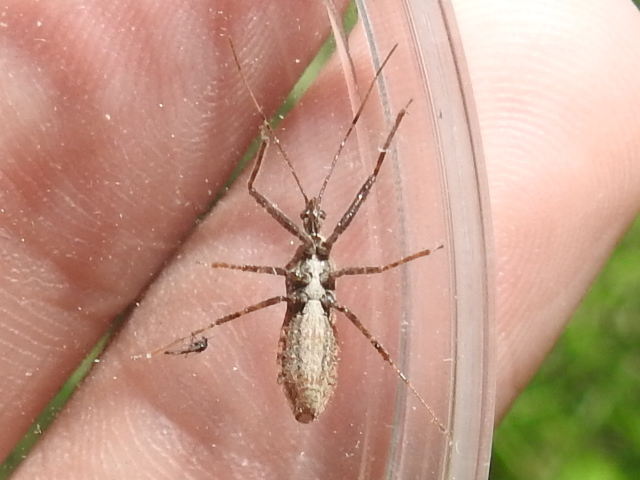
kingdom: Animalia
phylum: Arthropoda
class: Insecta
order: Hemiptera
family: Reduviidae
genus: Atrachelus
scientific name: Atrachelus cinereus
